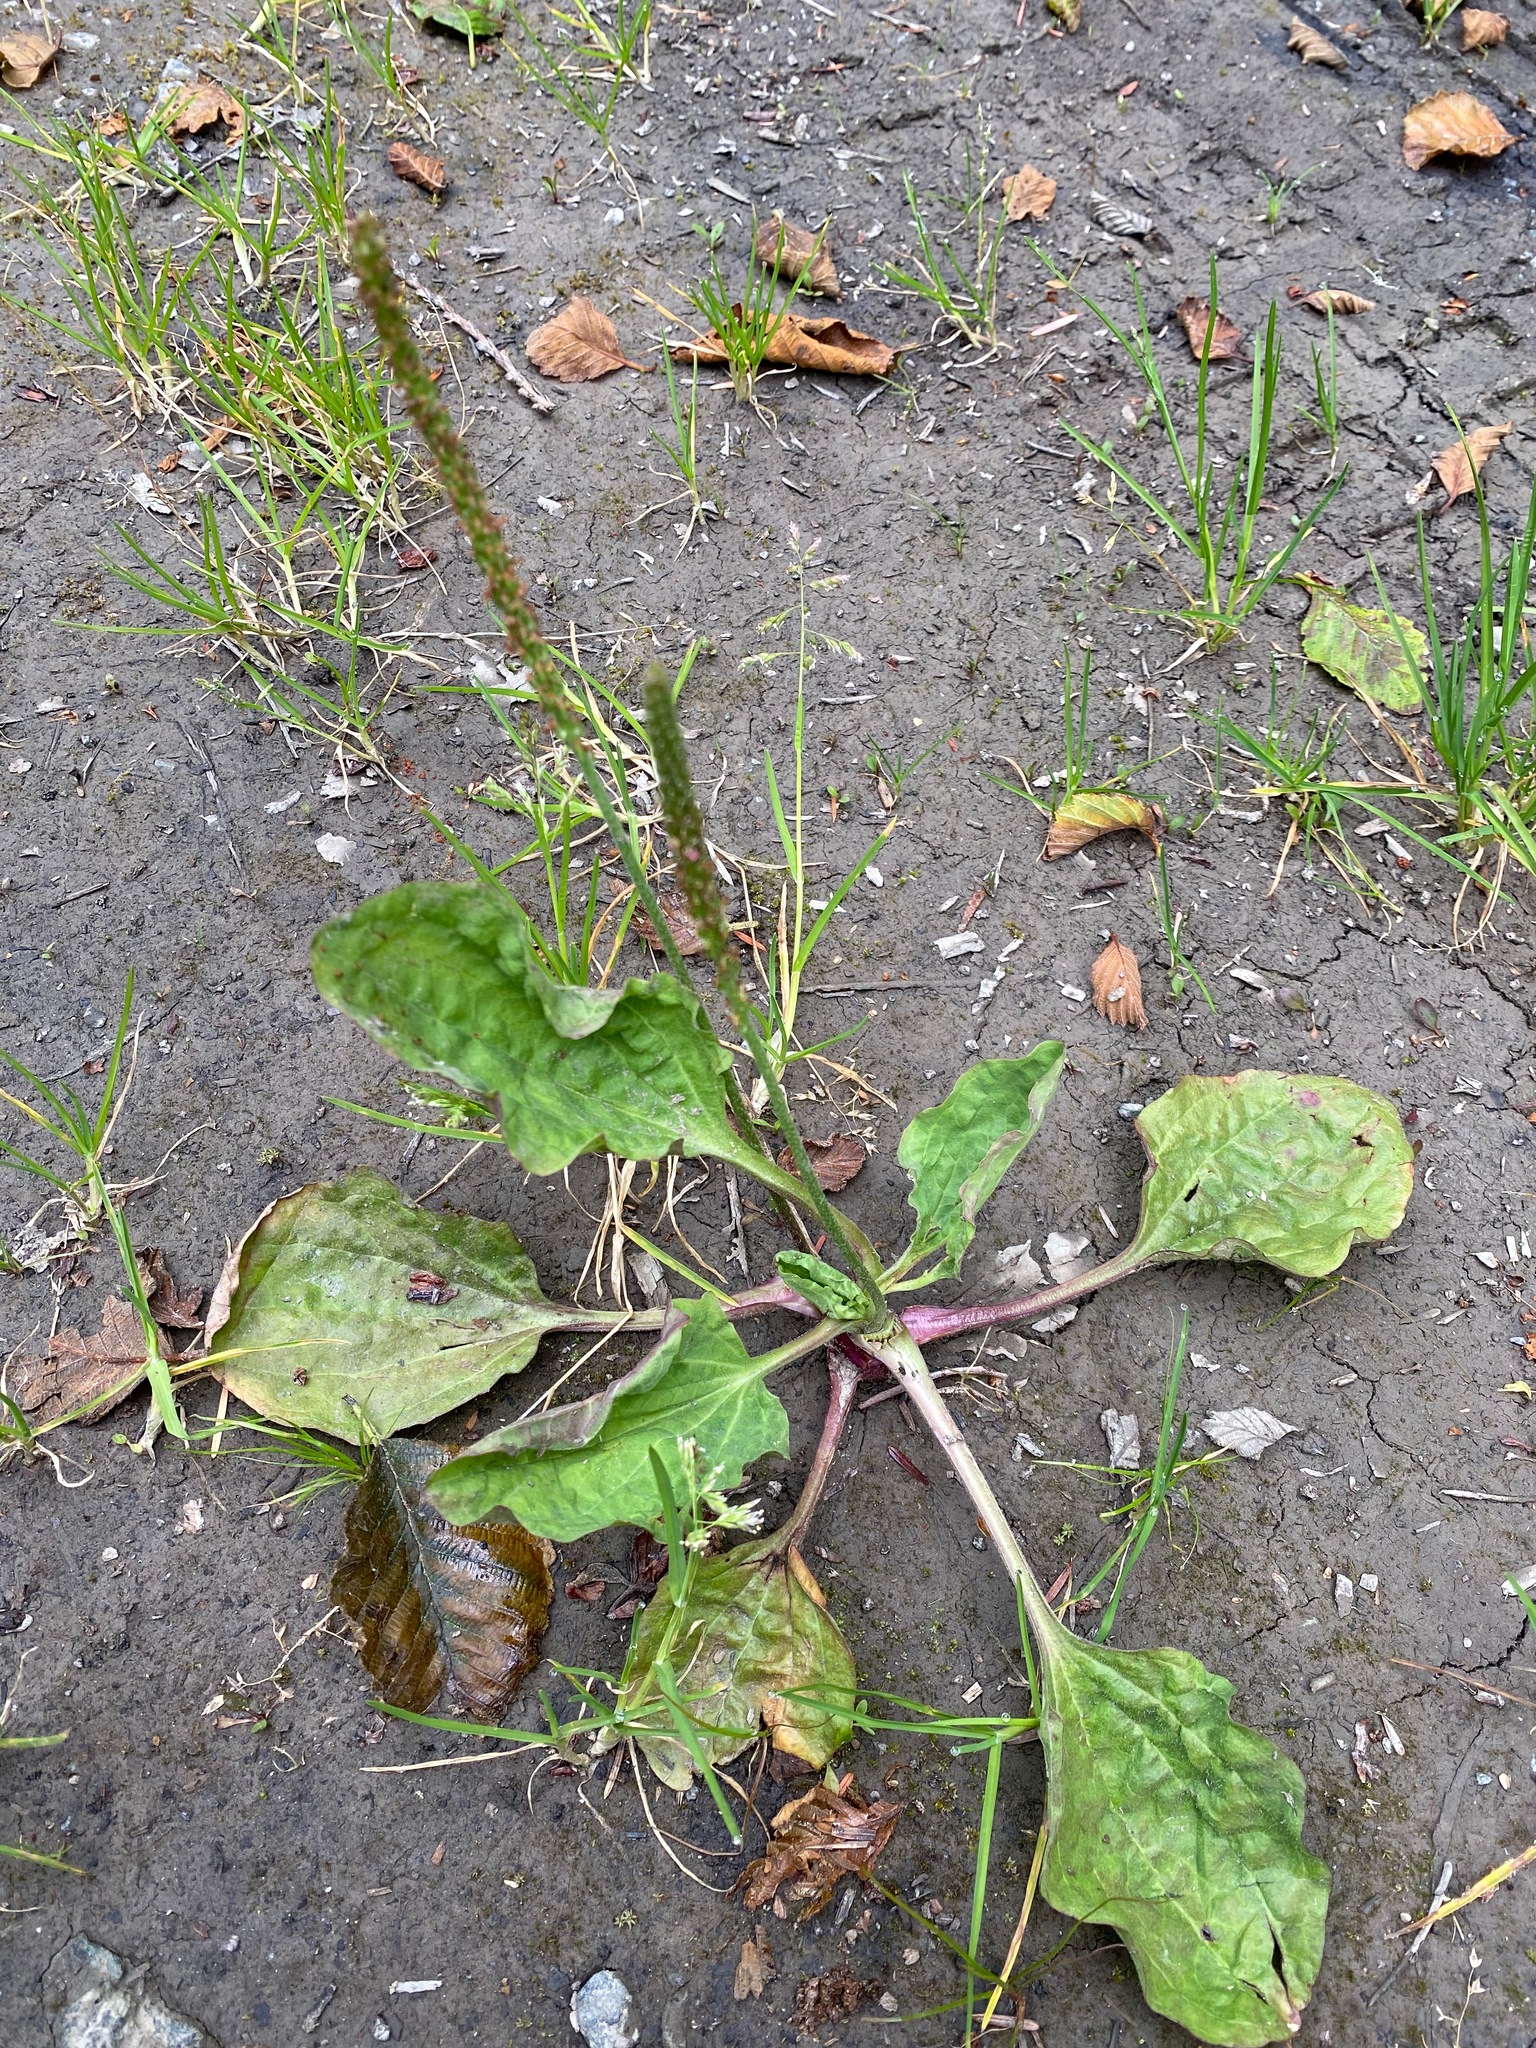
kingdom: Plantae
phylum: Tracheophyta
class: Magnoliopsida
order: Lamiales
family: Plantaginaceae
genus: Plantago
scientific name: Plantago major
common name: Common plantain
